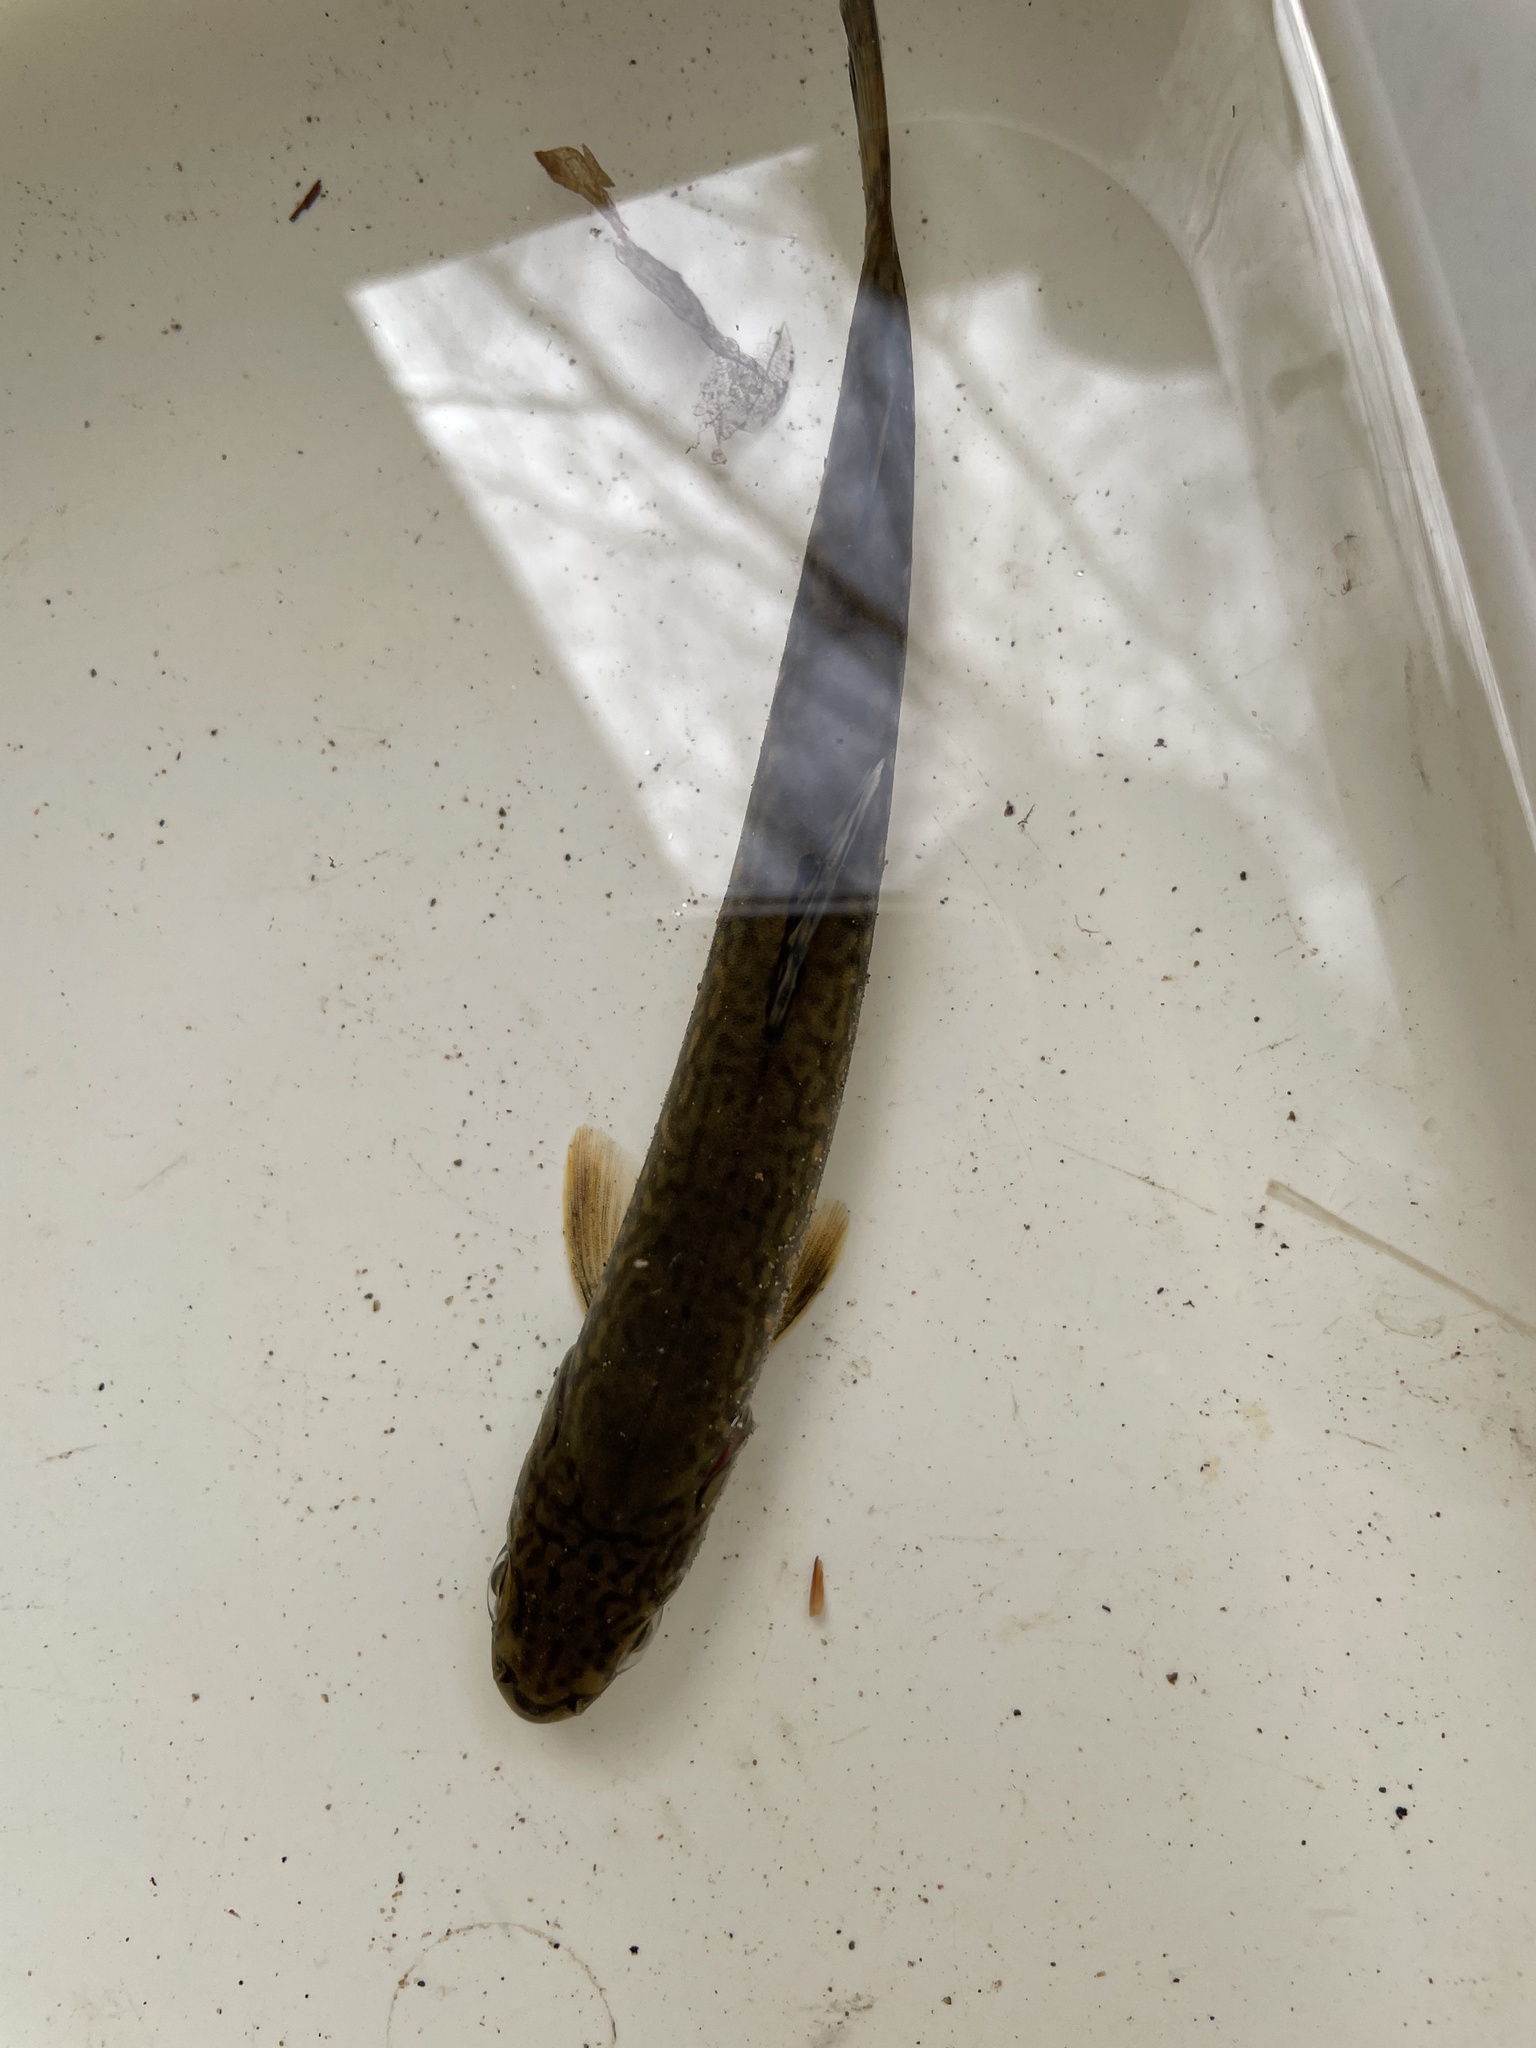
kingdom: Animalia
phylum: Chordata
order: Salmoniformes
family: Salmonidae
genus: Salvelinus
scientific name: Salvelinus fontinalis
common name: Brook trout
